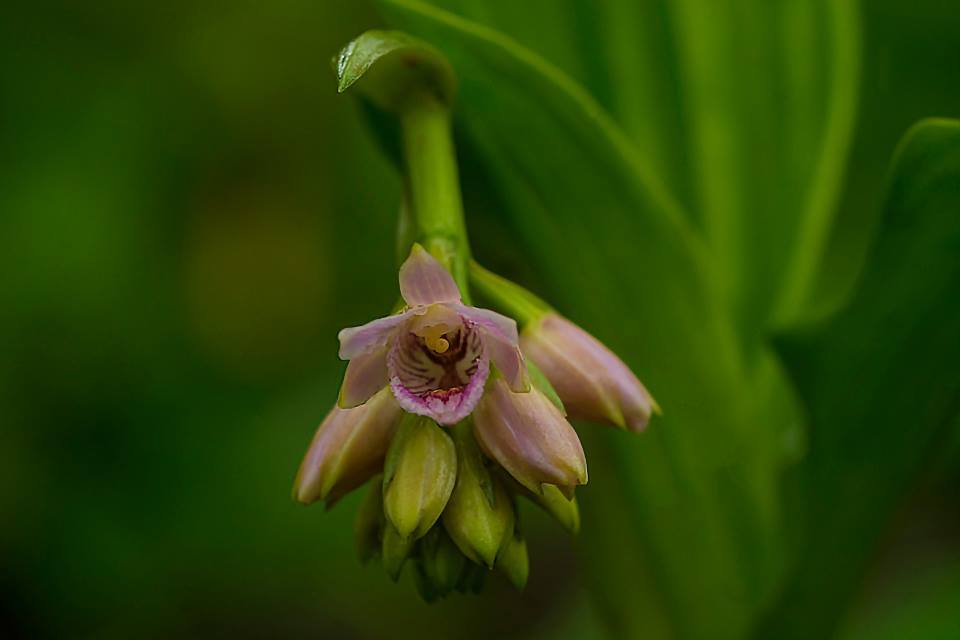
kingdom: Plantae
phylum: Tracheophyta
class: Liliopsida
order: Asparagales
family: Orchidaceae
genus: Eulophia
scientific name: Eulophia cernua
